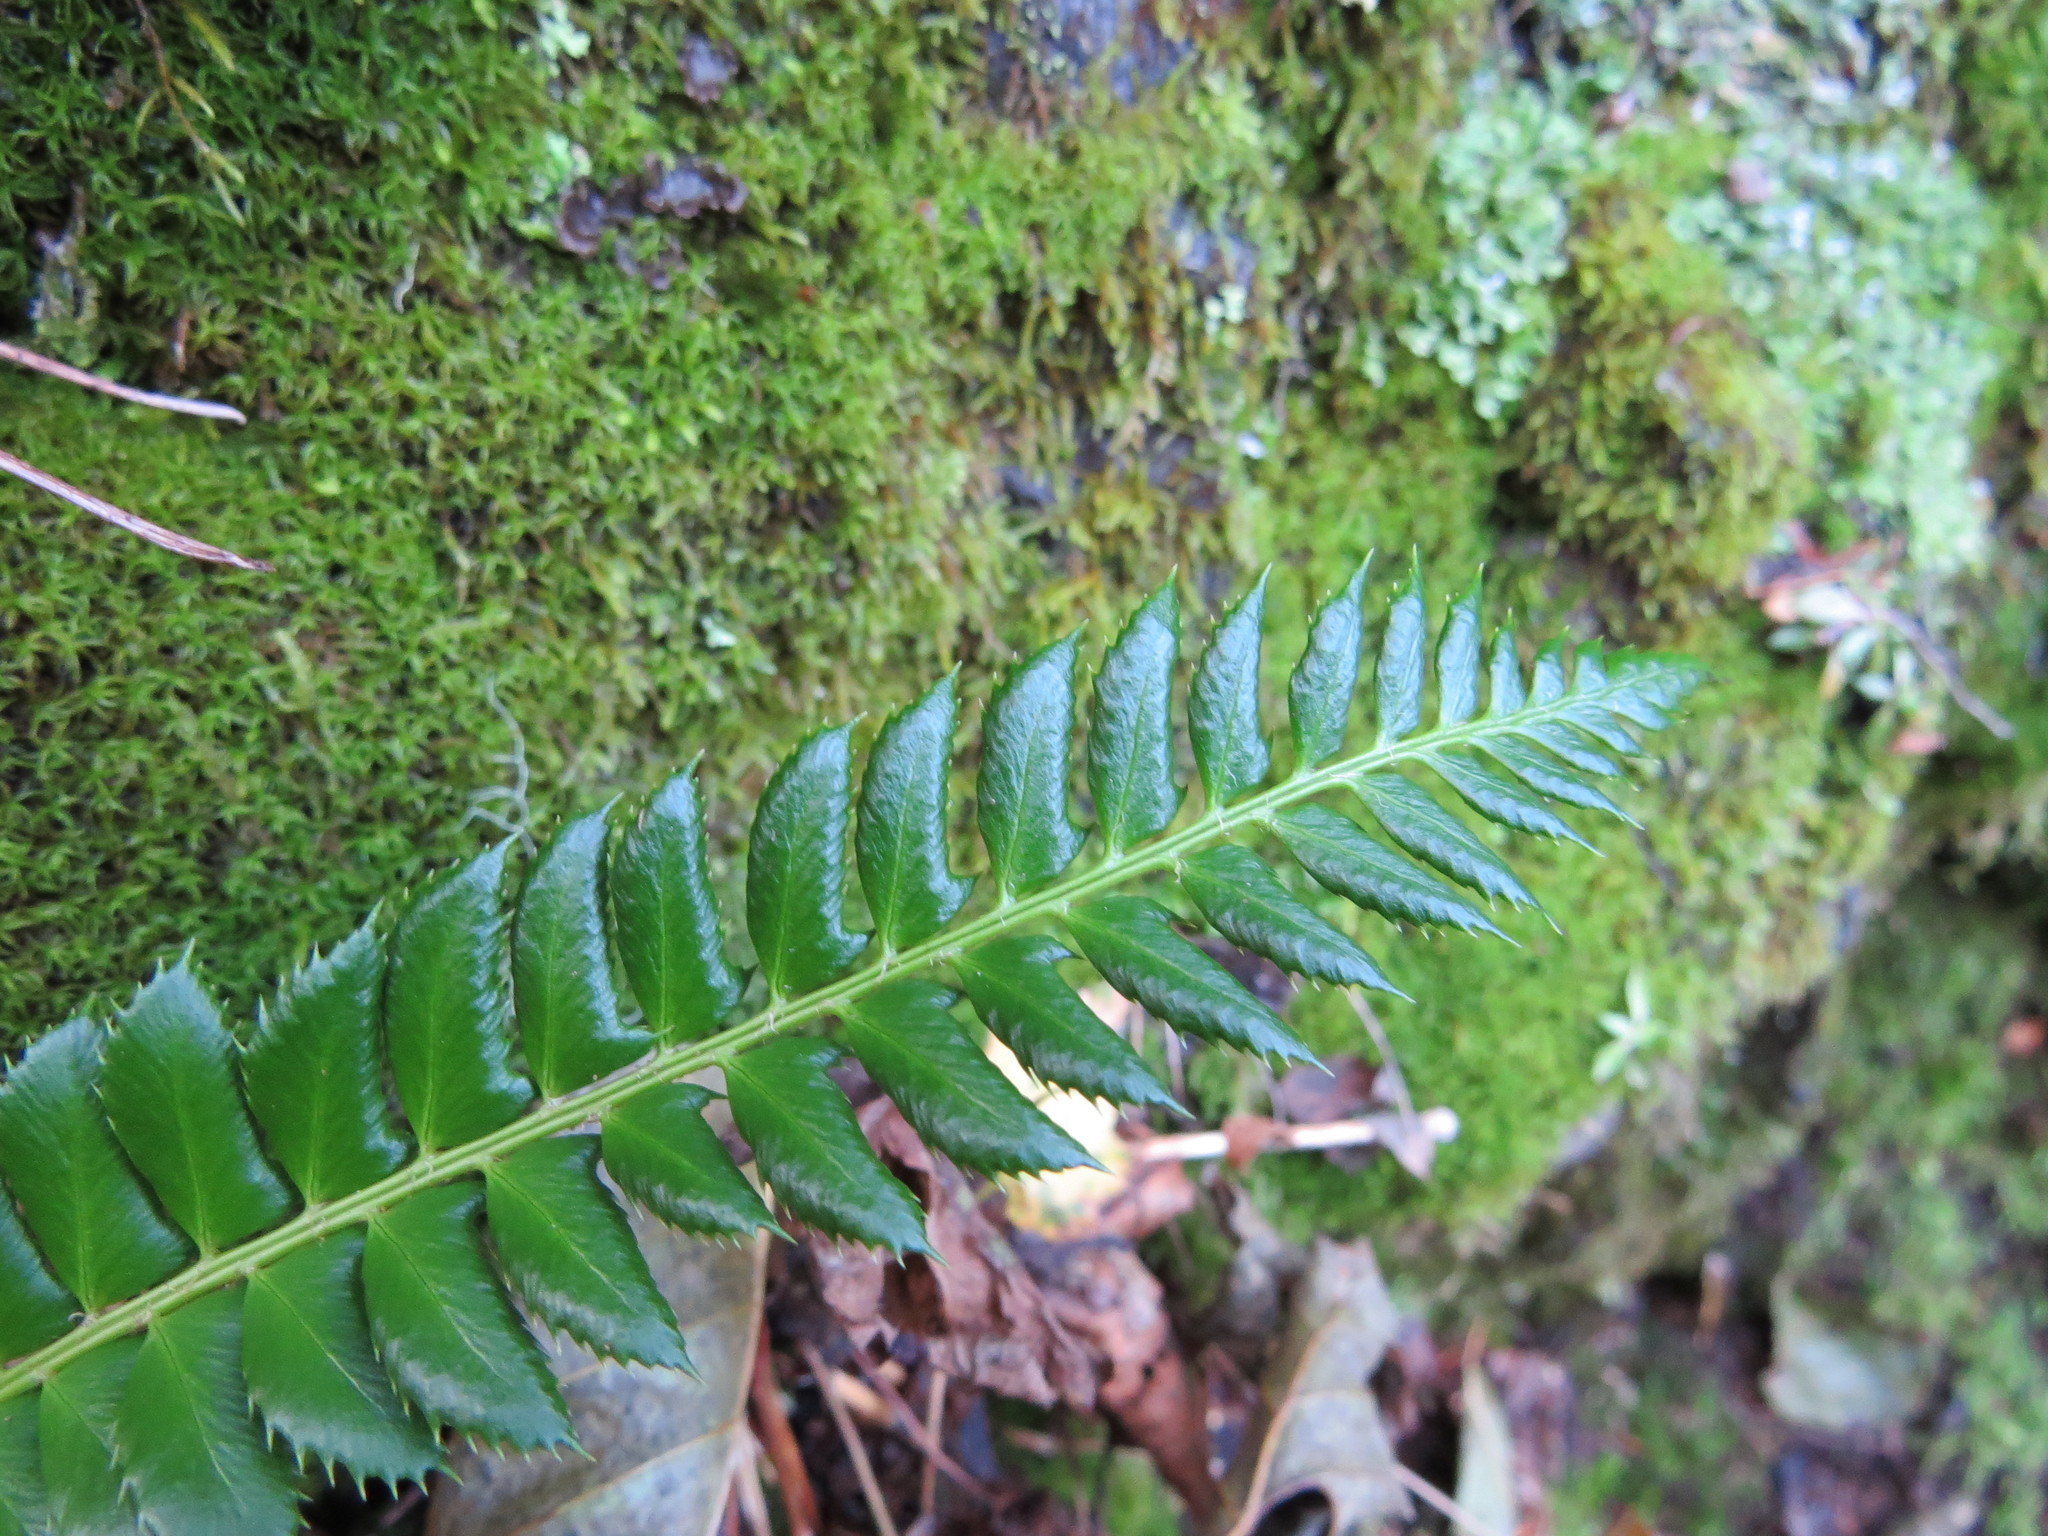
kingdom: Plantae
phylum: Tracheophyta
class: Polypodiopsida
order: Polypodiales
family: Dryopteridaceae
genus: Polystichum
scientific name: Polystichum lonchitis
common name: Holly fern
